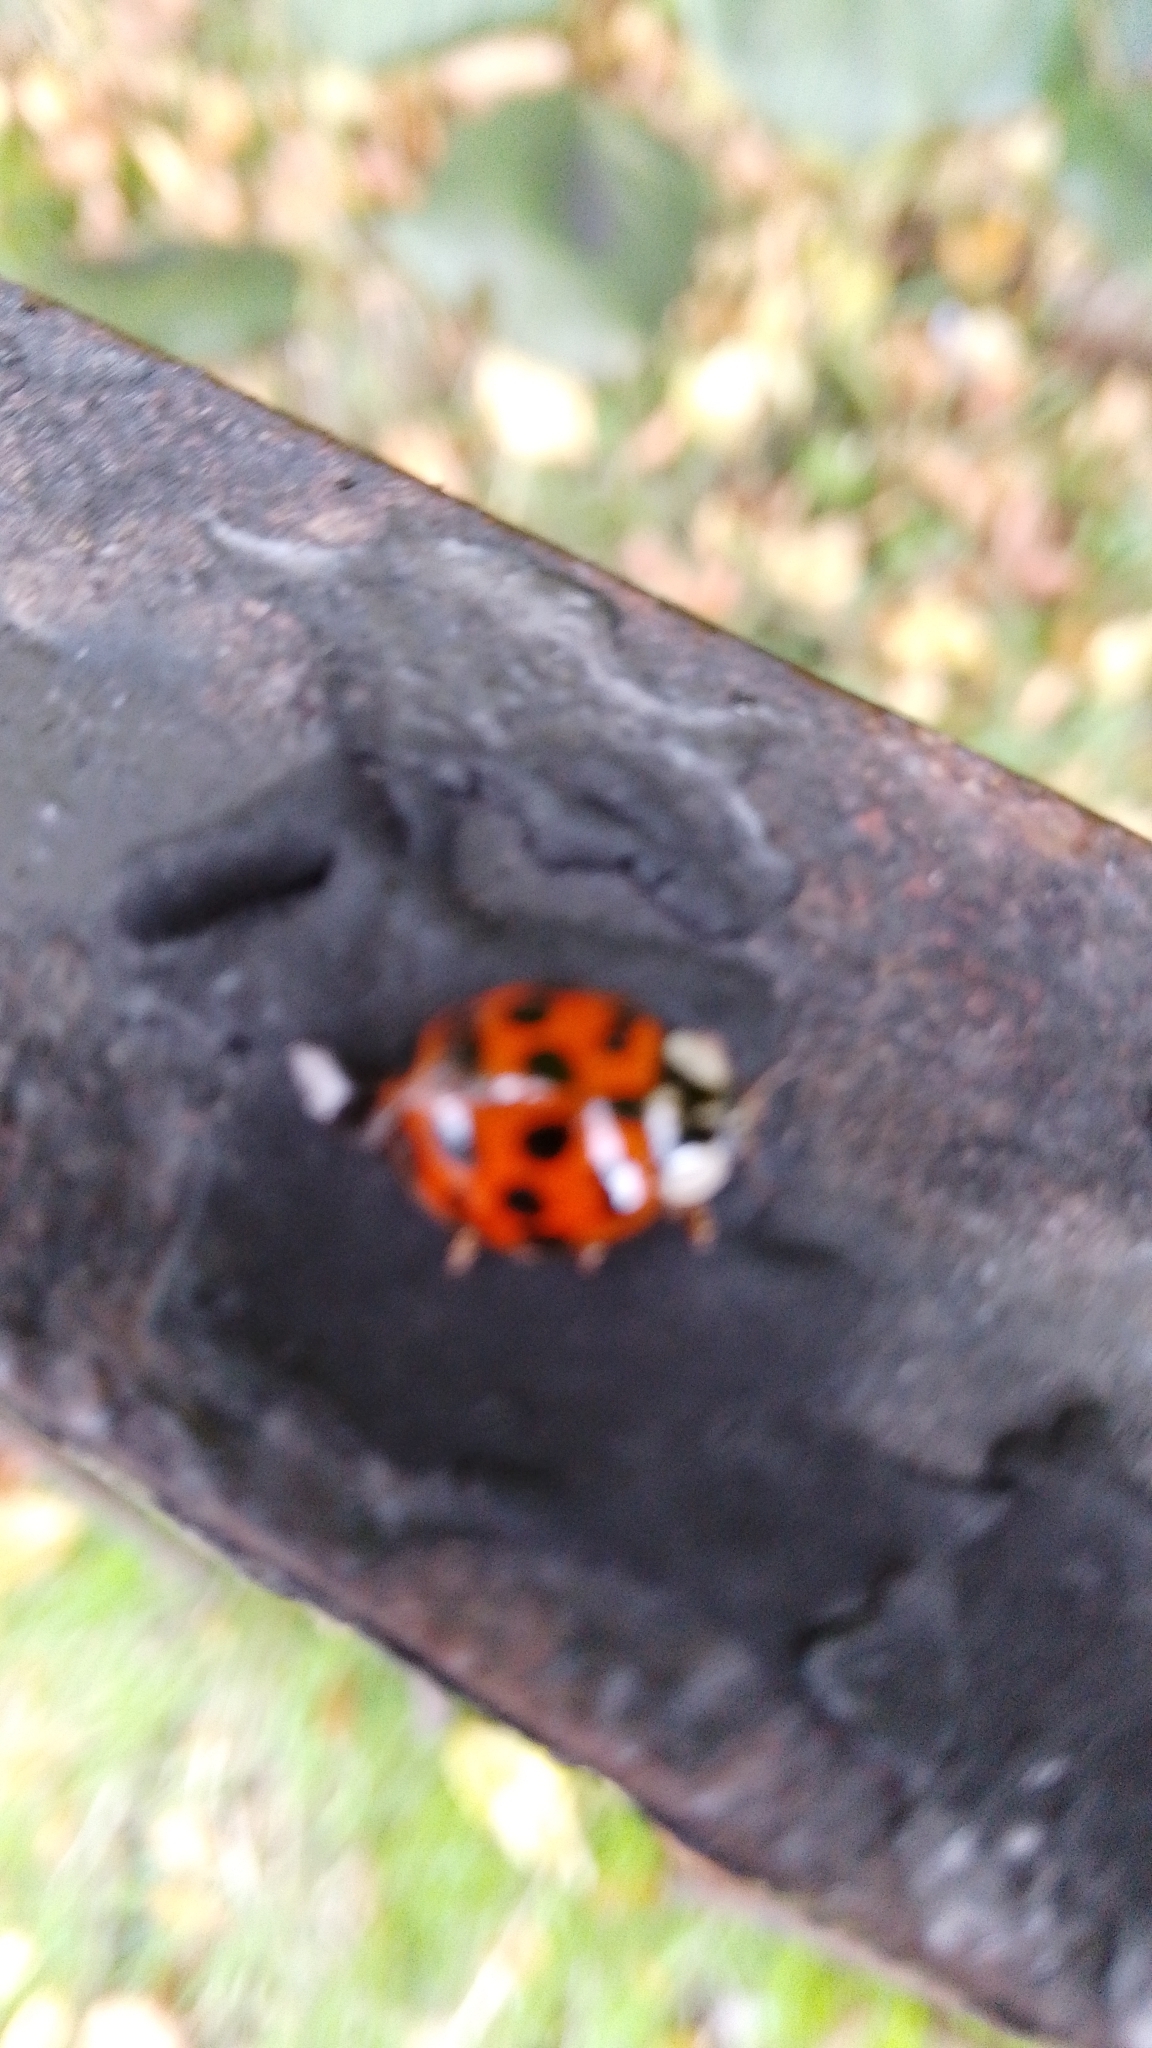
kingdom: Animalia
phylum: Arthropoda
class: Insecta
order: Coleoptera
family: Coccinellidae
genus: Harmonia
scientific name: Harmonia axyridis
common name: Harlequin ladybird
